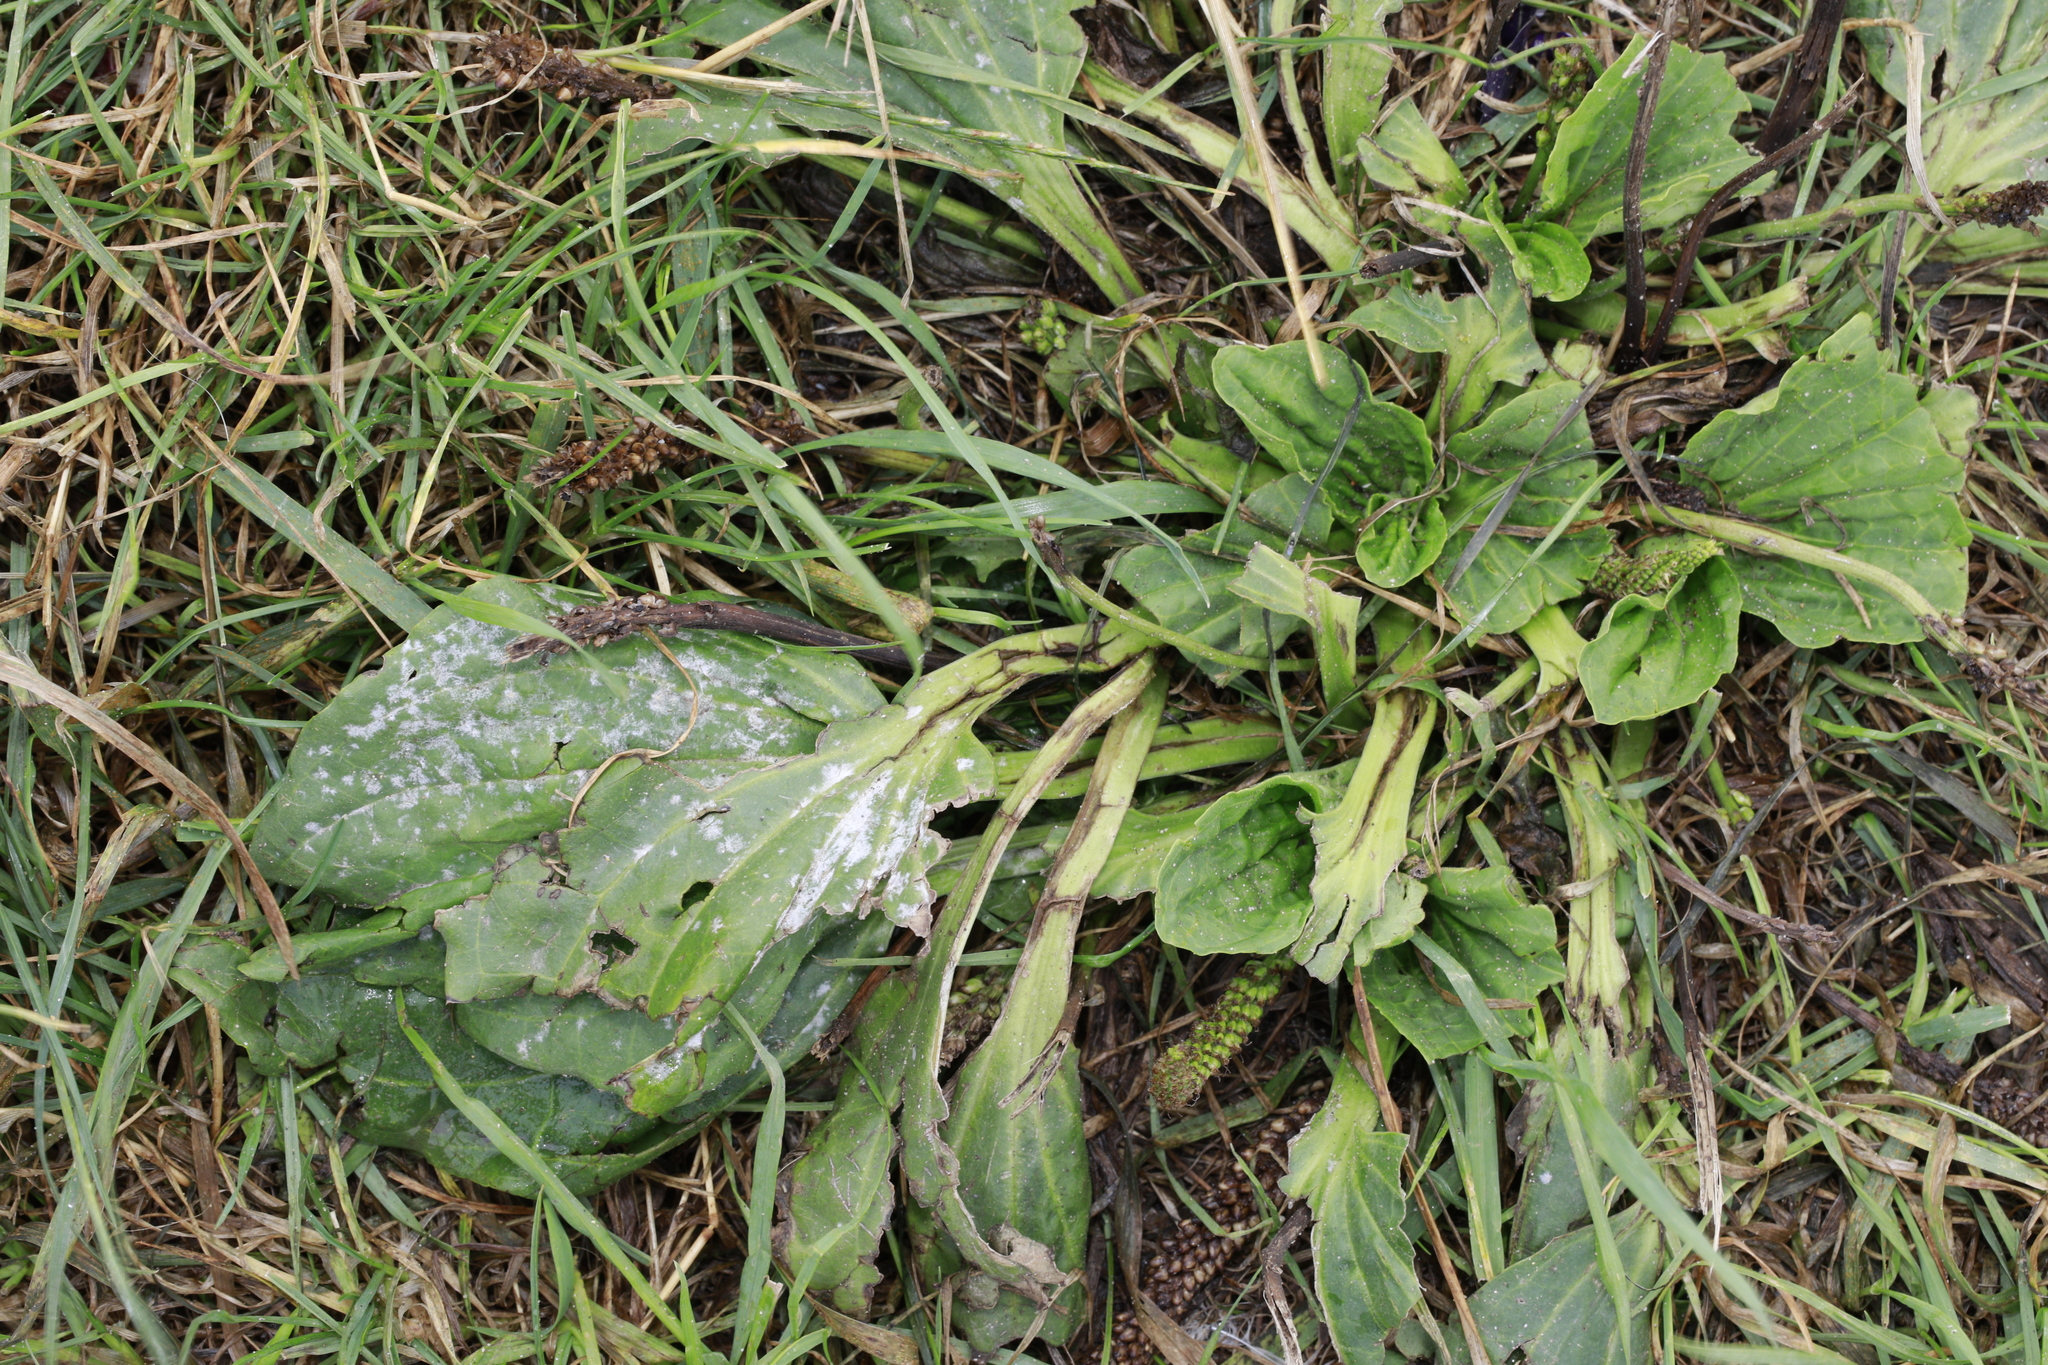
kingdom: Plantae
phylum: Tracheophyta
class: Magnoliopsida
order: Lamiales
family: Plantaginaceae
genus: Plantago
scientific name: Plantago major
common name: Common plantain
